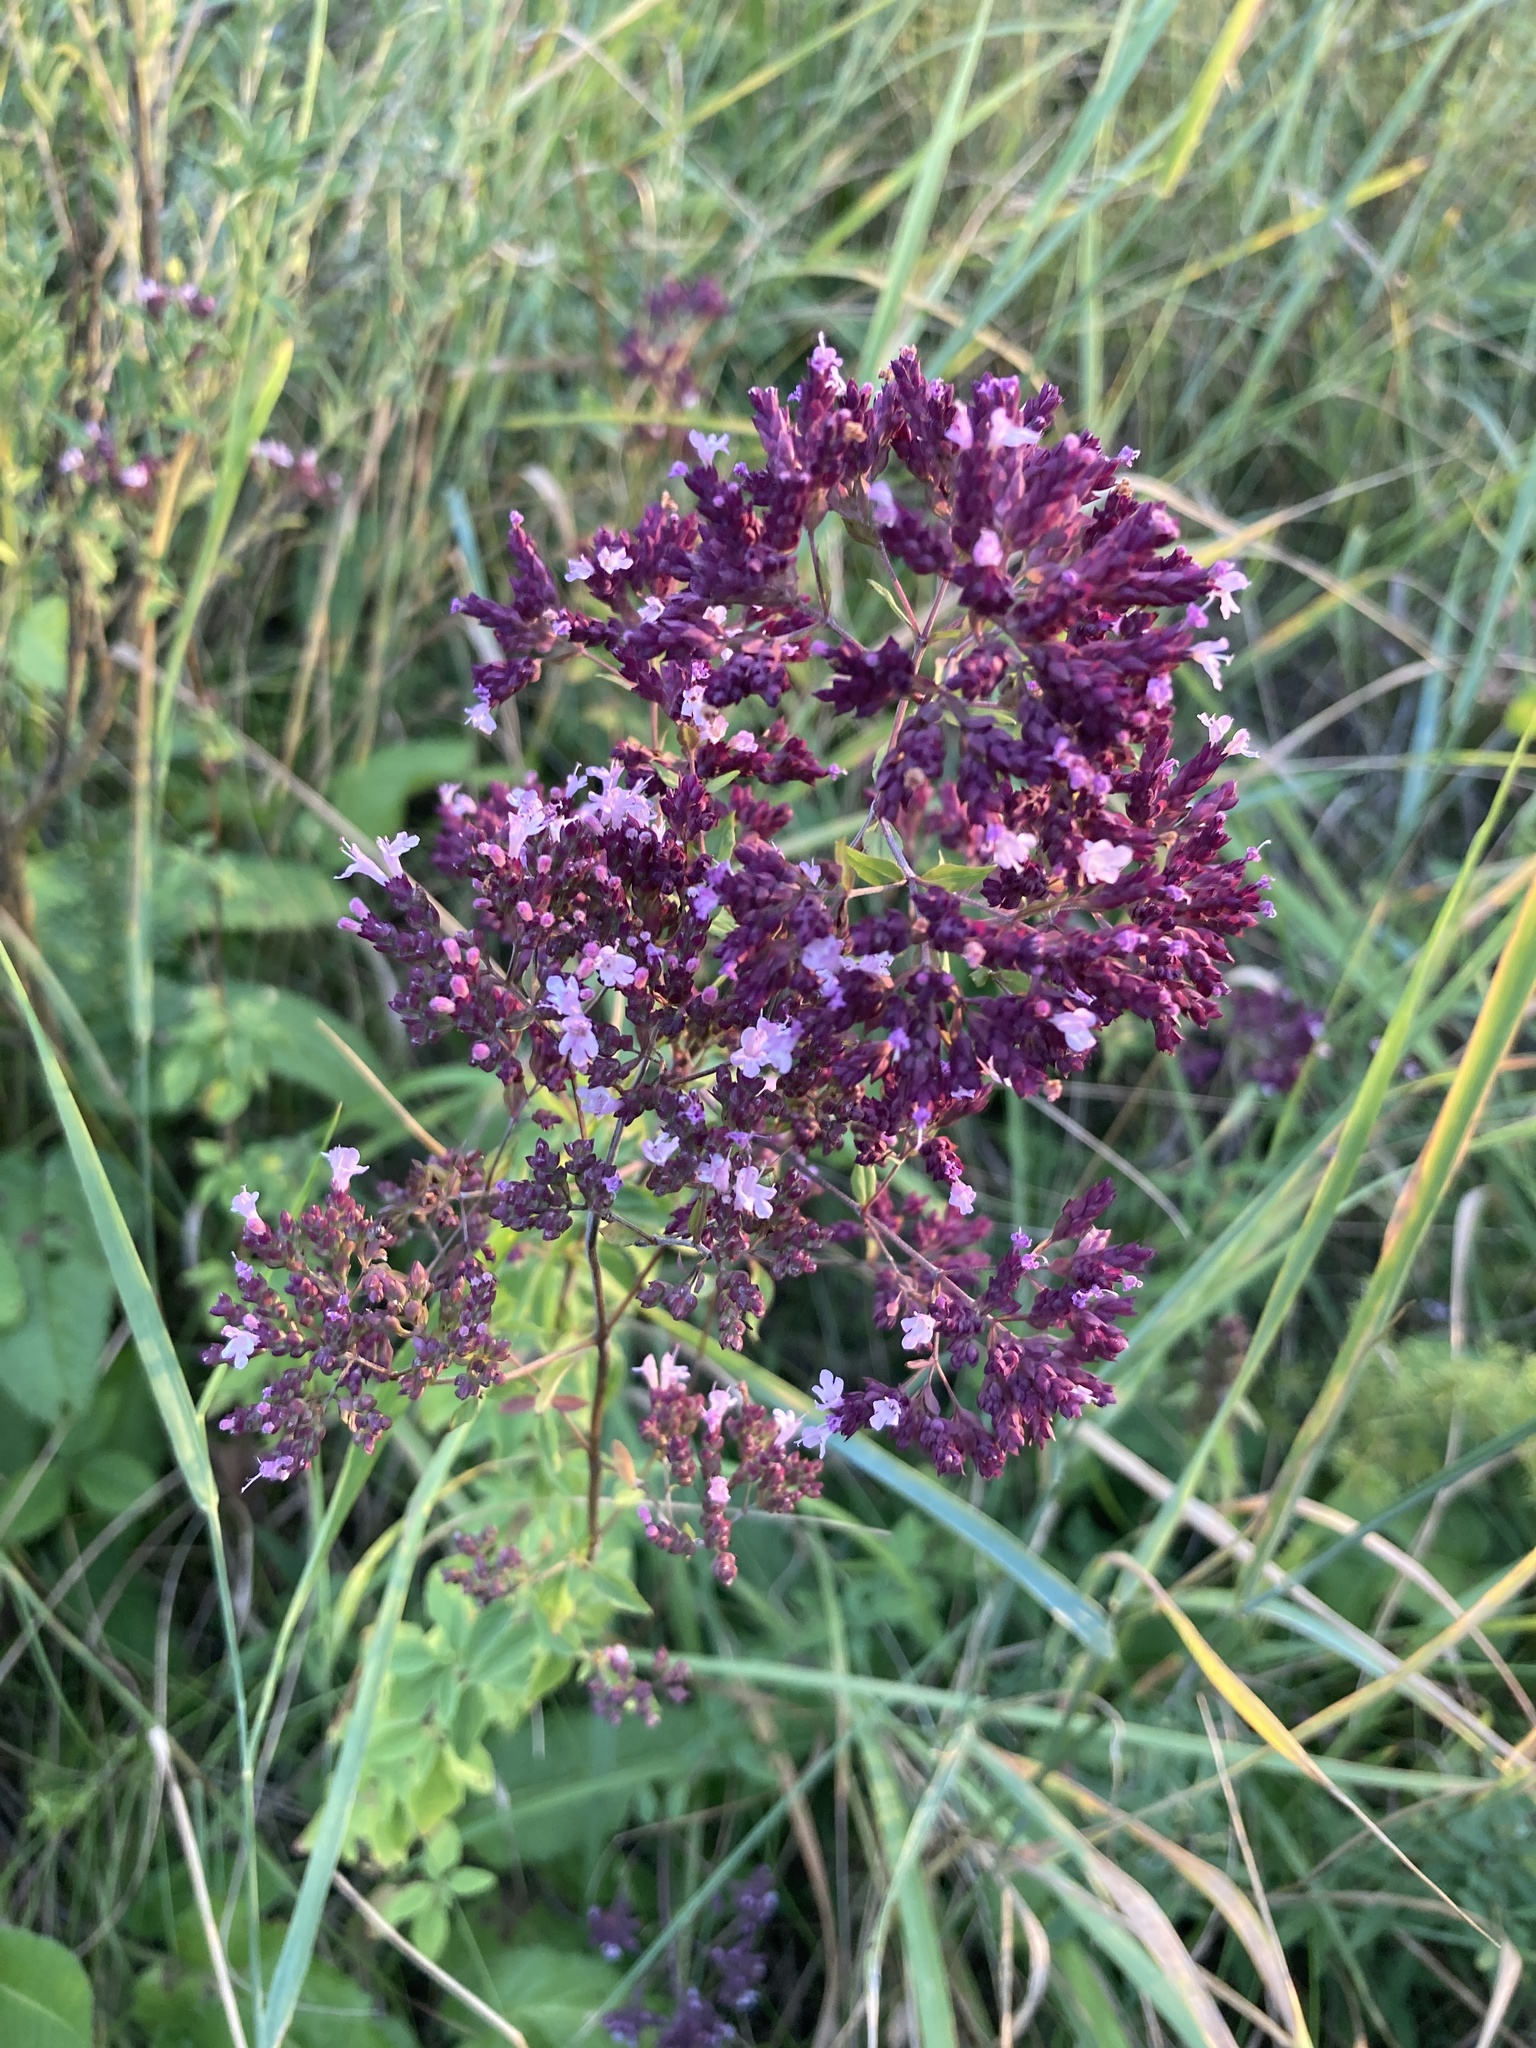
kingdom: Plantae
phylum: Tracheophyta
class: Magnoliopsida
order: Lamiales
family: Lamiaceae
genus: Origanum
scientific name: Origanum vulgare
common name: Wild marjoram
